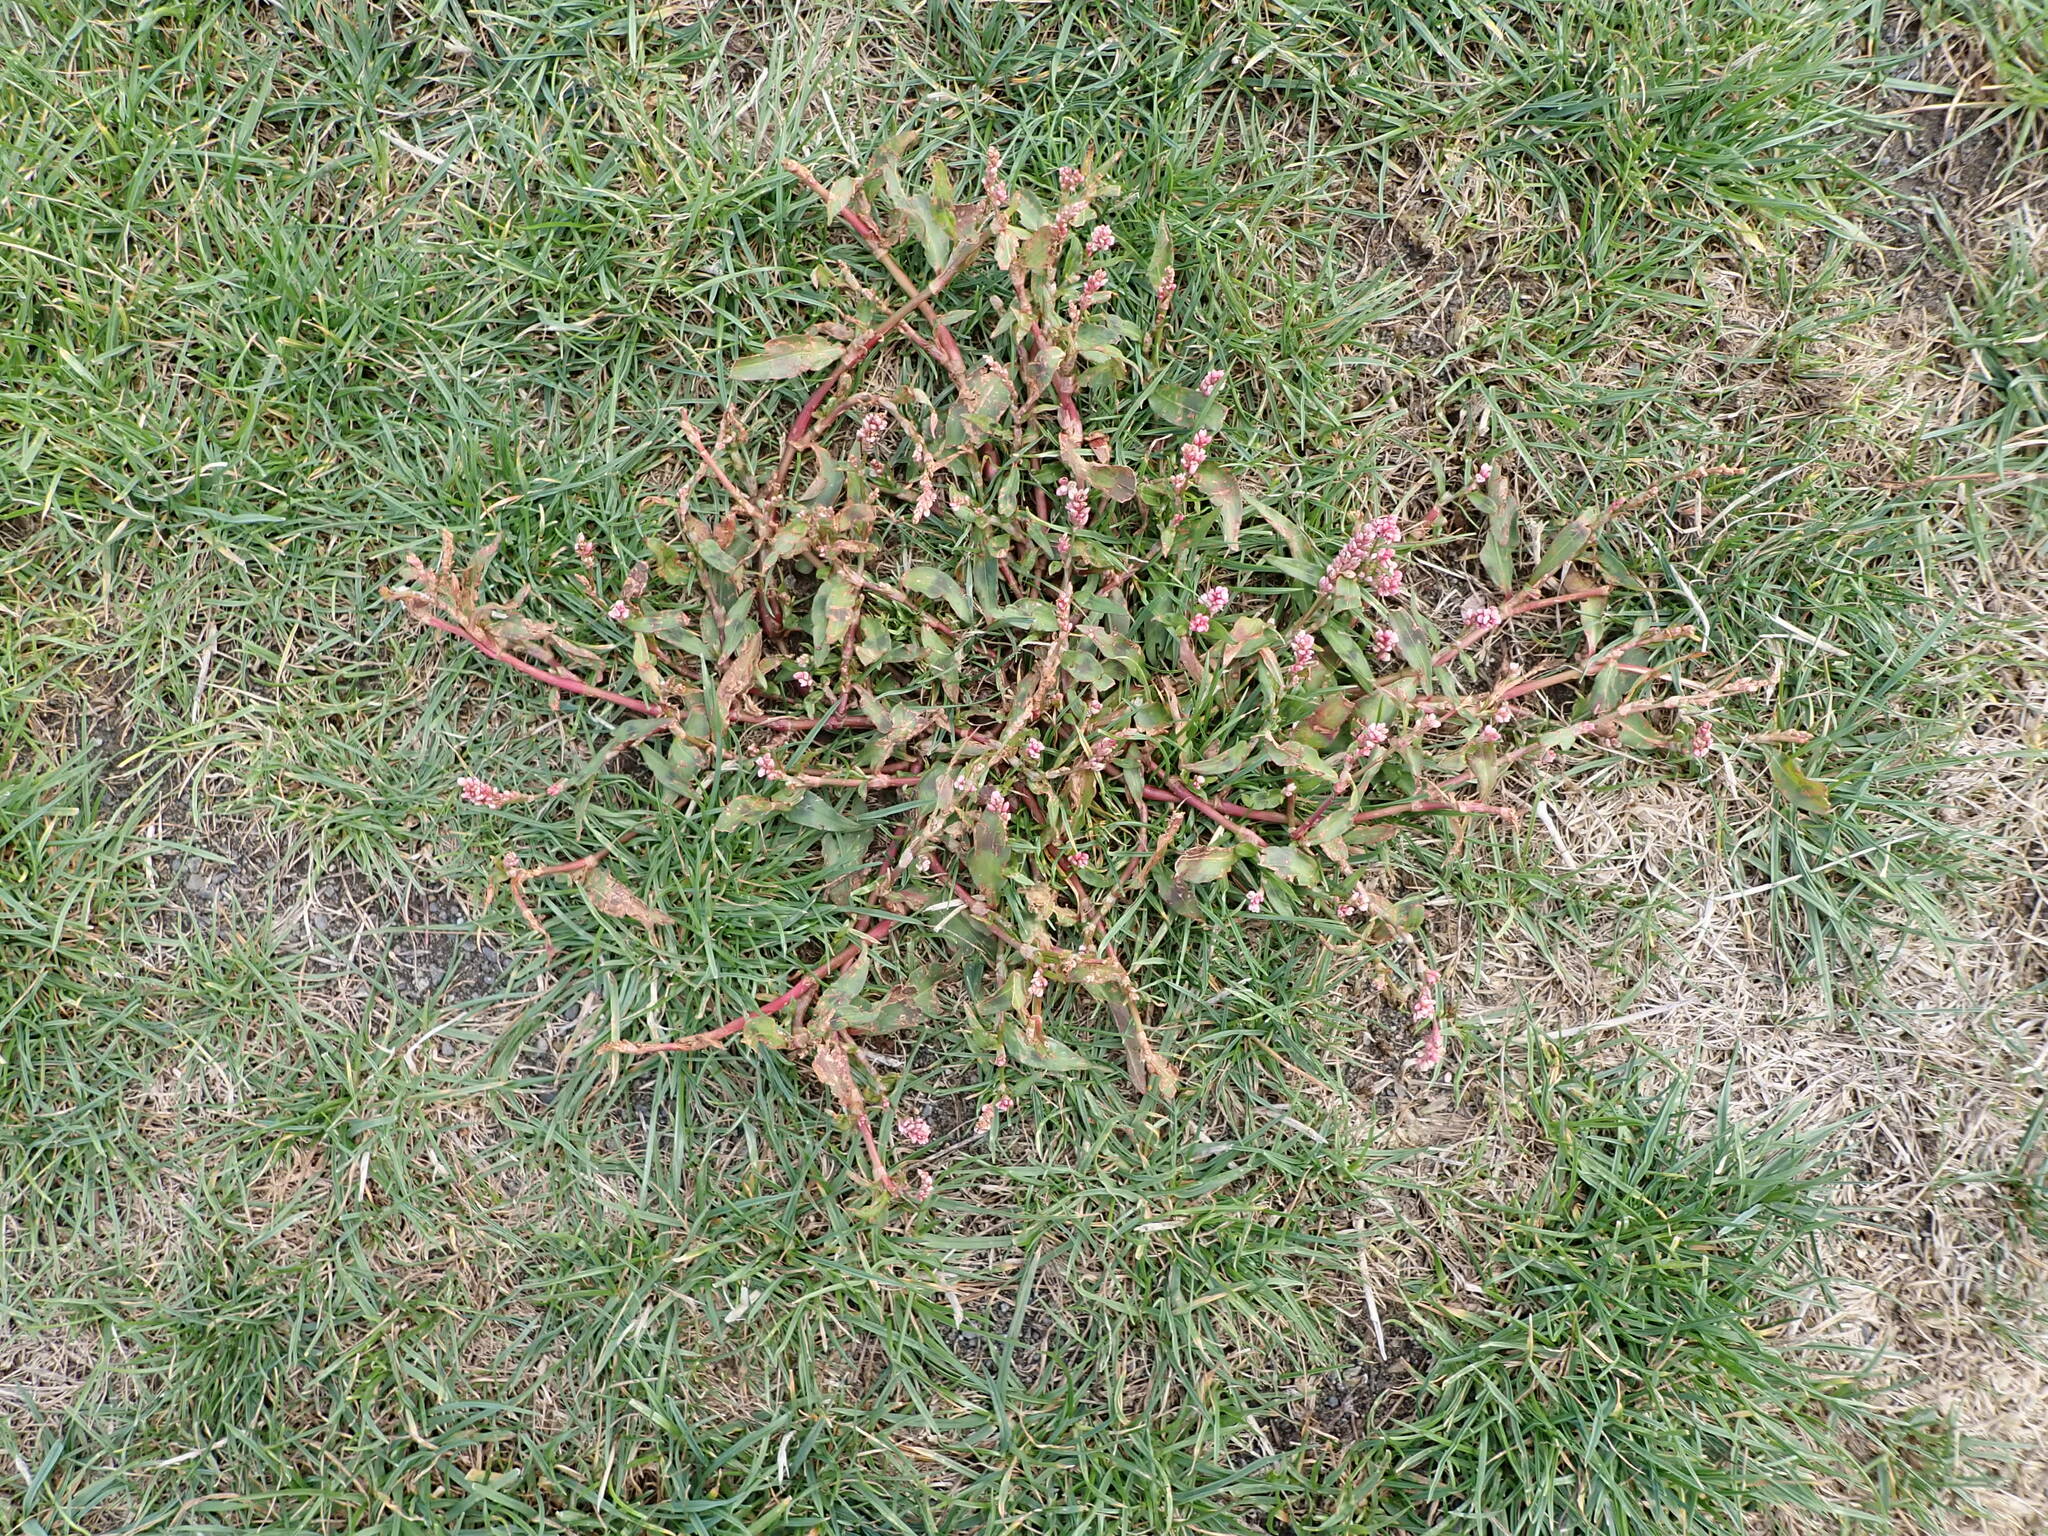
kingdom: Plantae
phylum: Tracheophyta
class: Magnoliopsida
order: Caryophyllales
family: Polygonaceae
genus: Persicaria
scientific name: Persicaria maculosa
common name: Redshank
